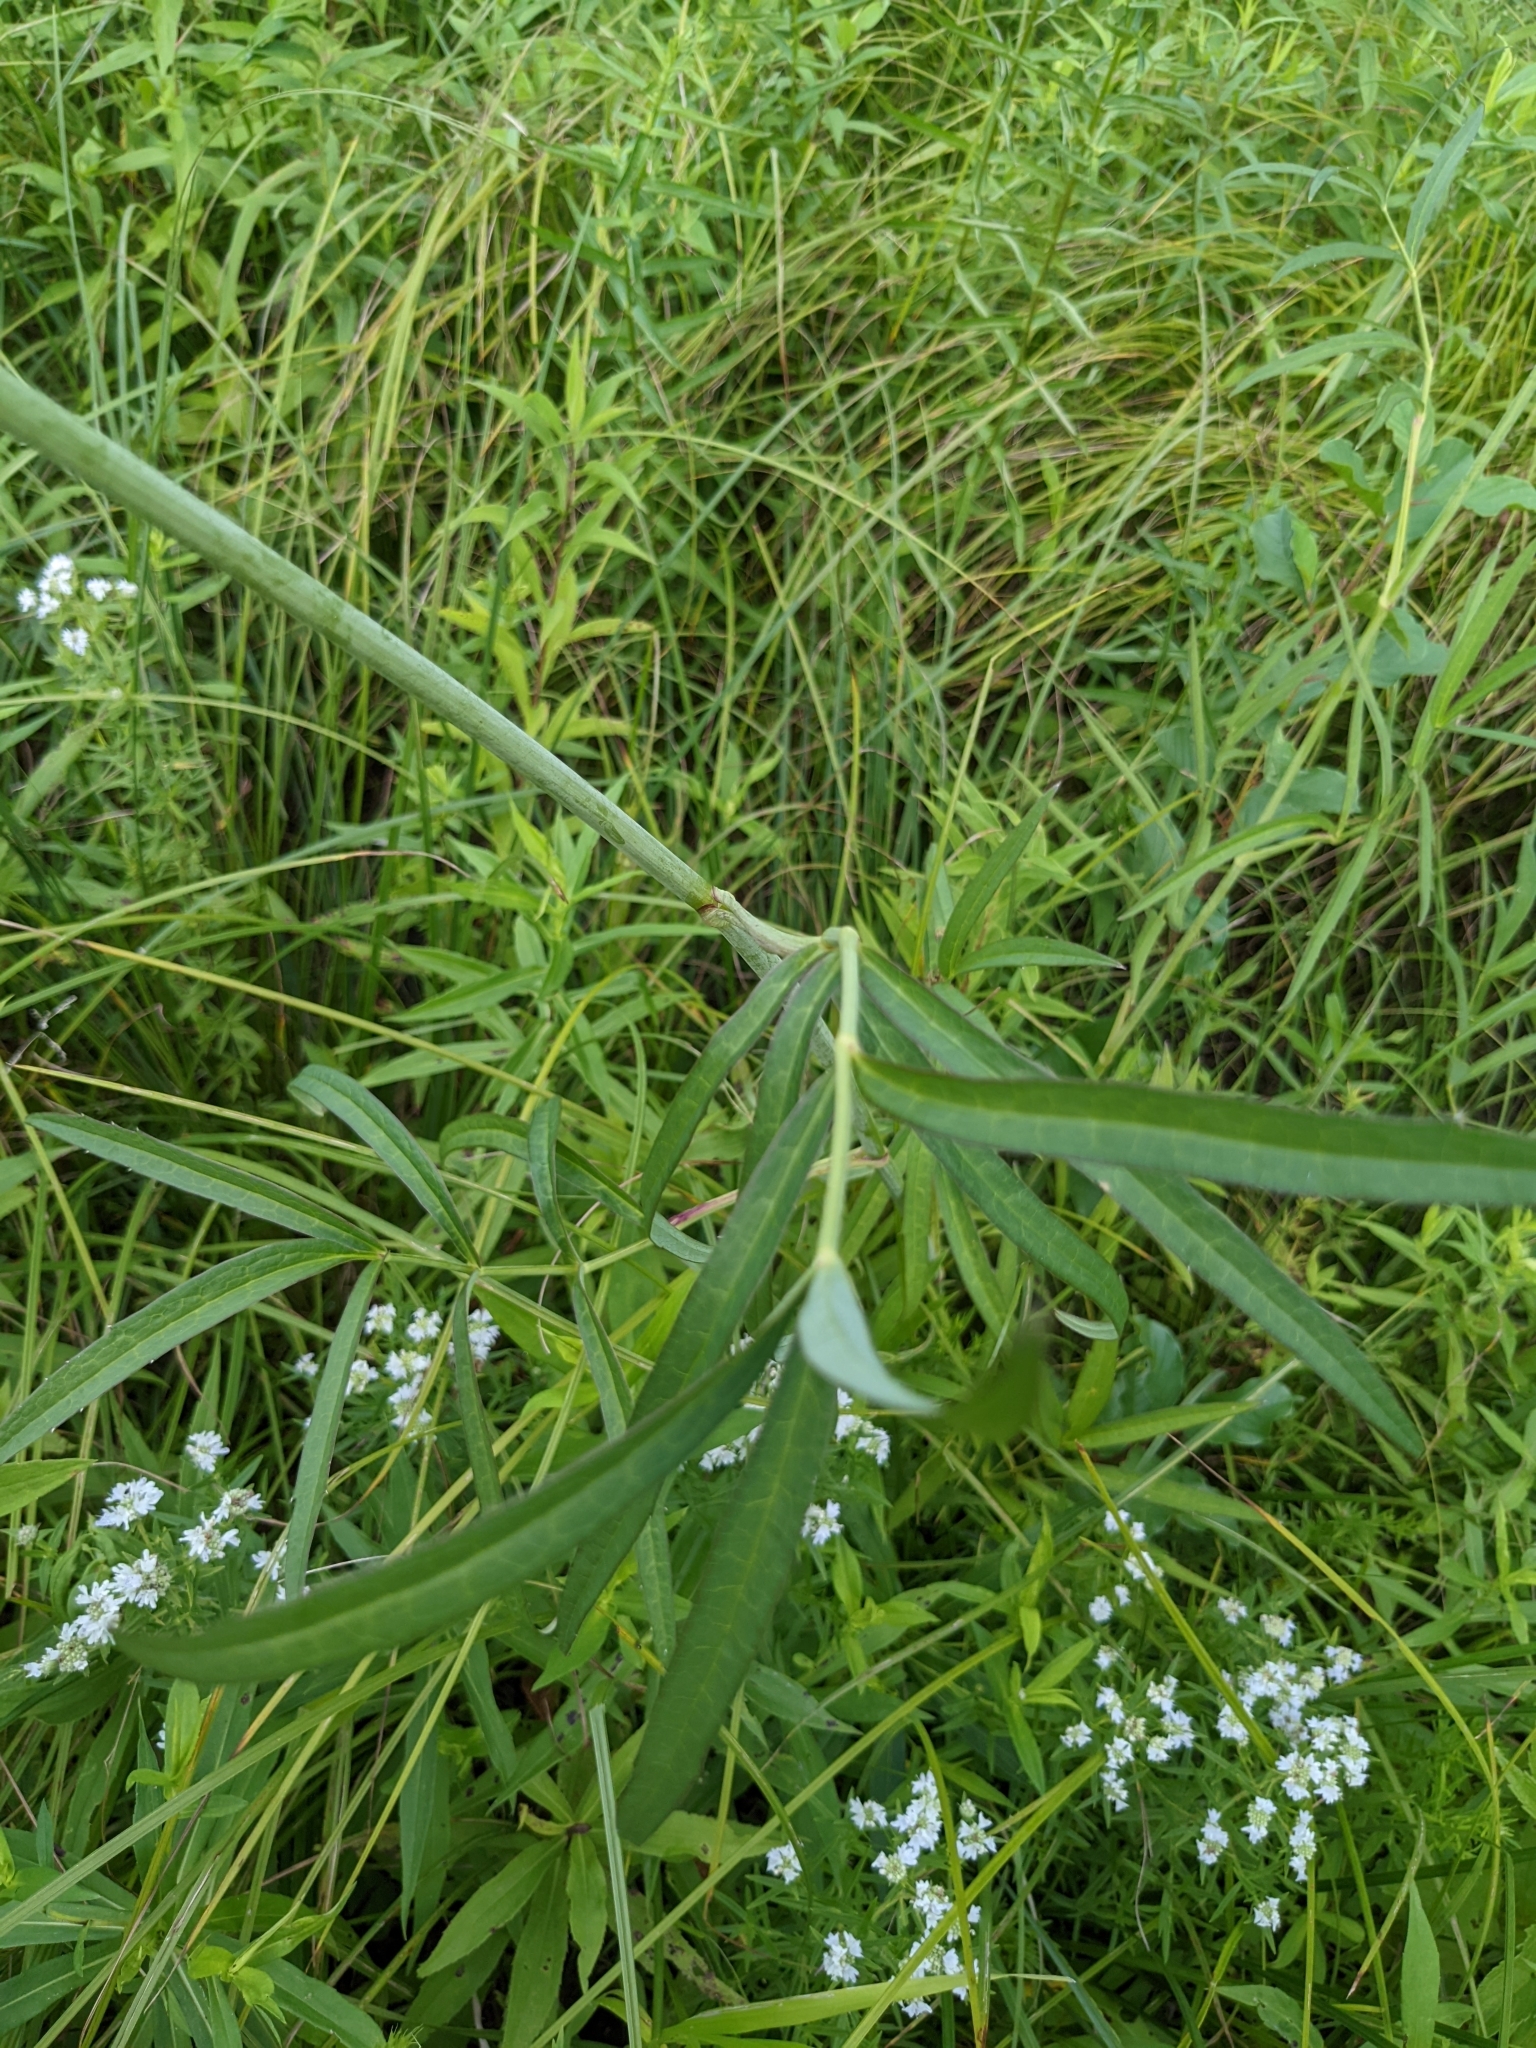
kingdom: Plantae
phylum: Tracheophyta
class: Magnoliopsida
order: Apiales
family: Apiaceae
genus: Oxypolis
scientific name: Oxypolis rigidior
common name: Cowbane
